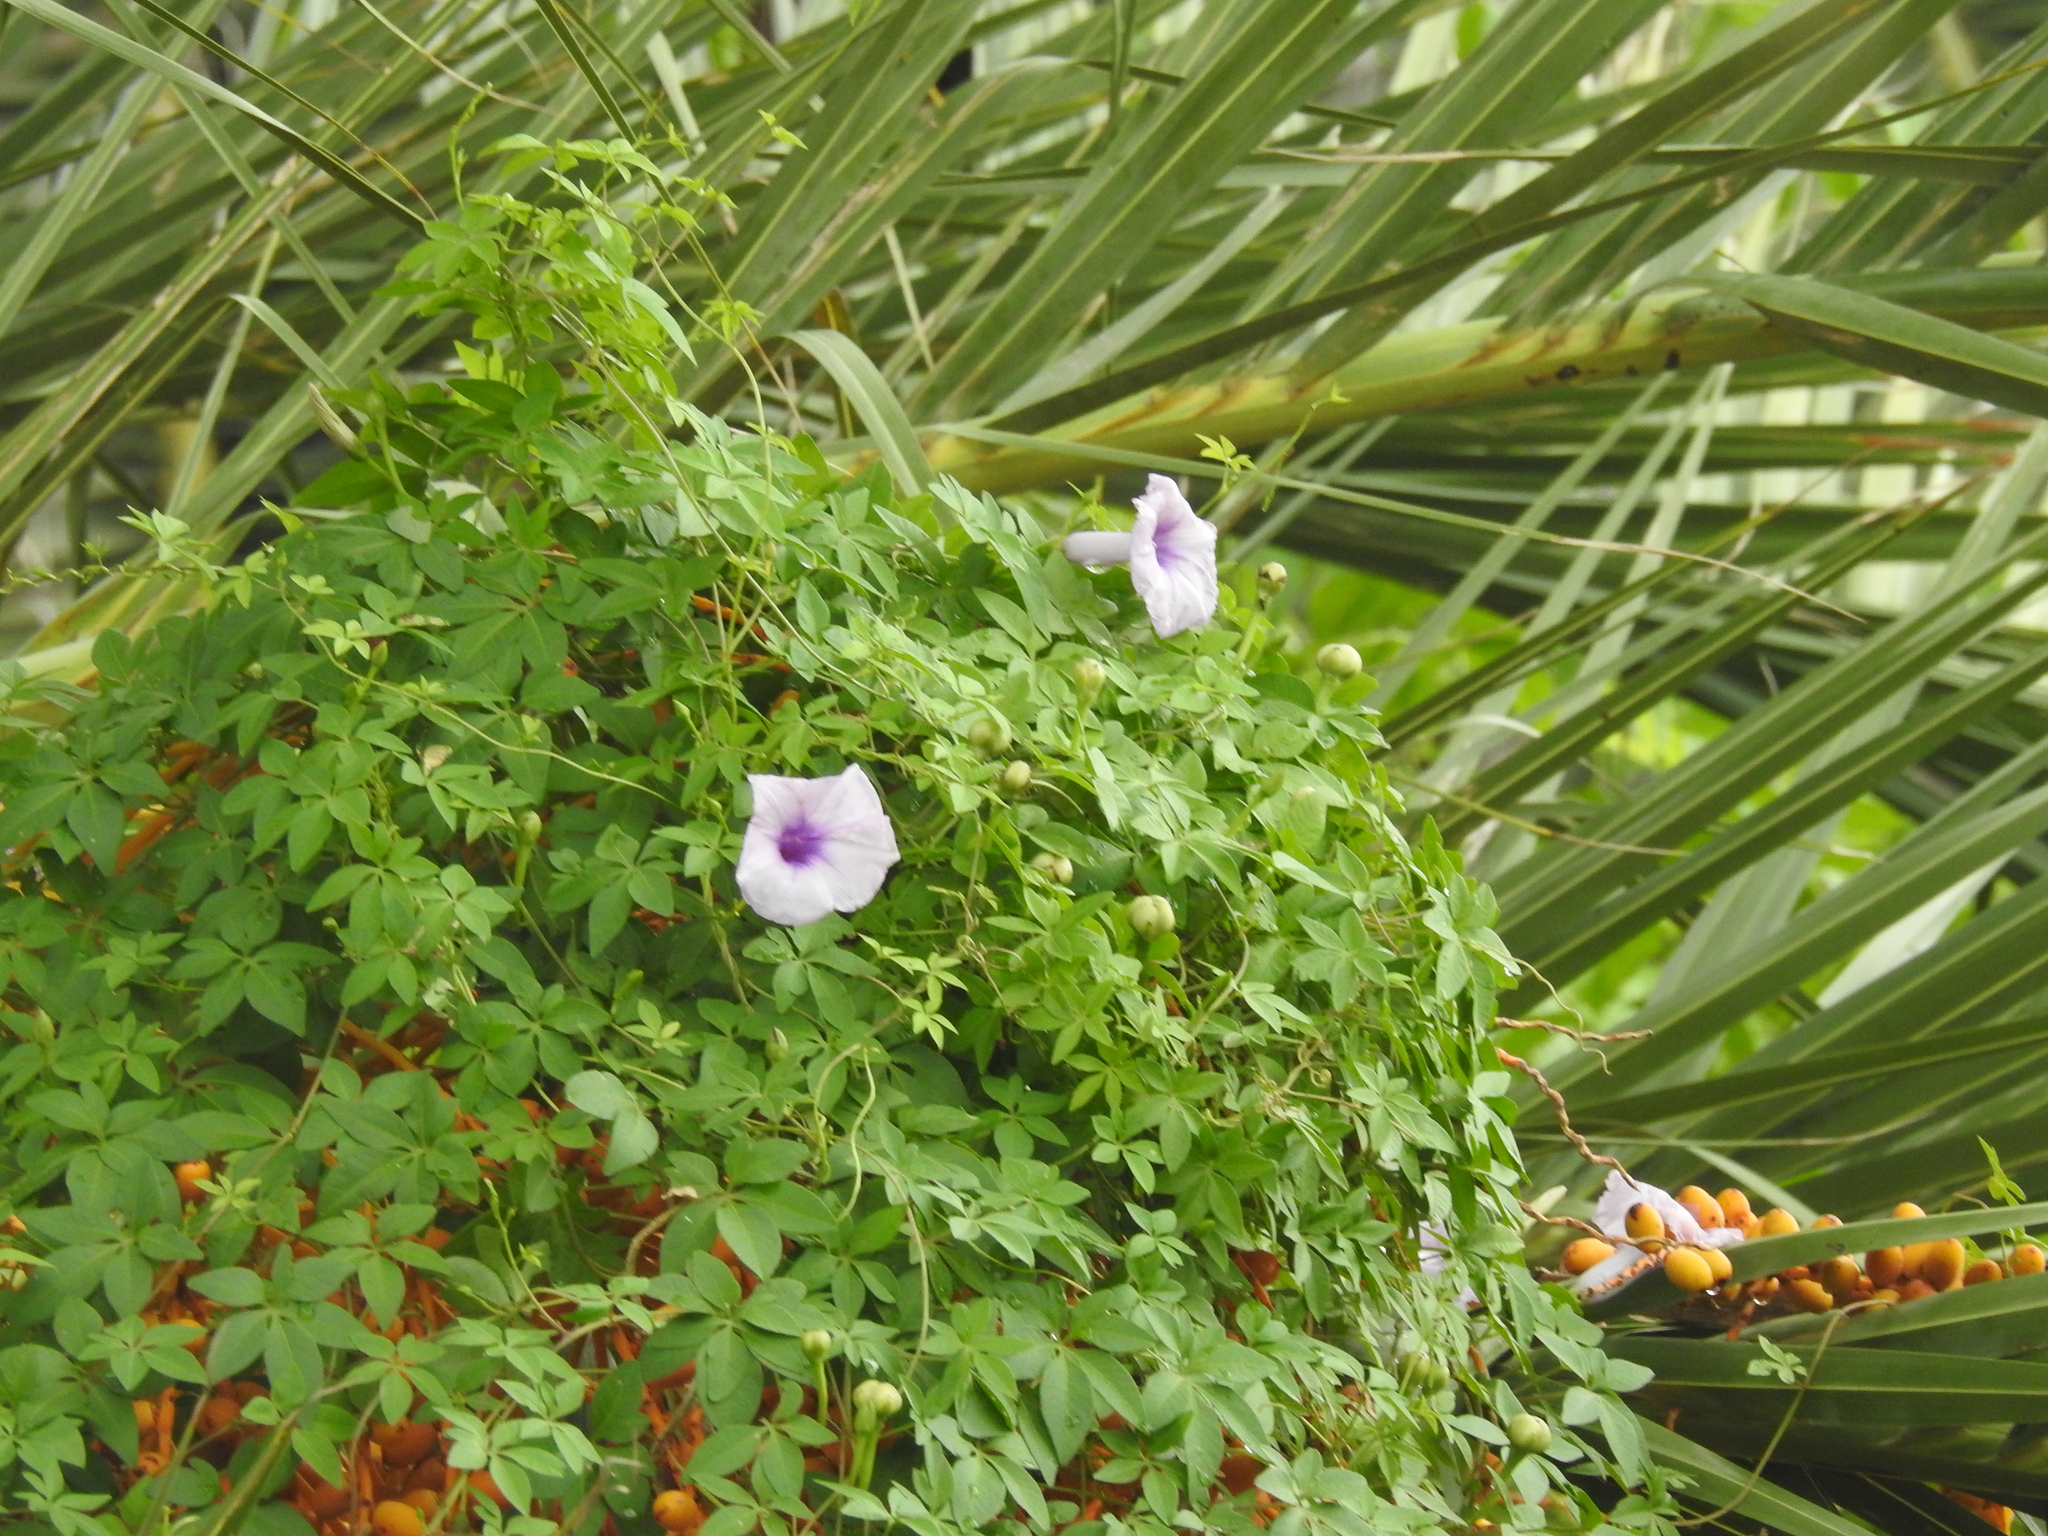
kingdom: Plantae
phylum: Tracheophyta
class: Magnoliopsida
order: Solanales
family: Convolvulaceae
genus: Ipomoea
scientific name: Ipomoea cairica
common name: Mile a minute vine
